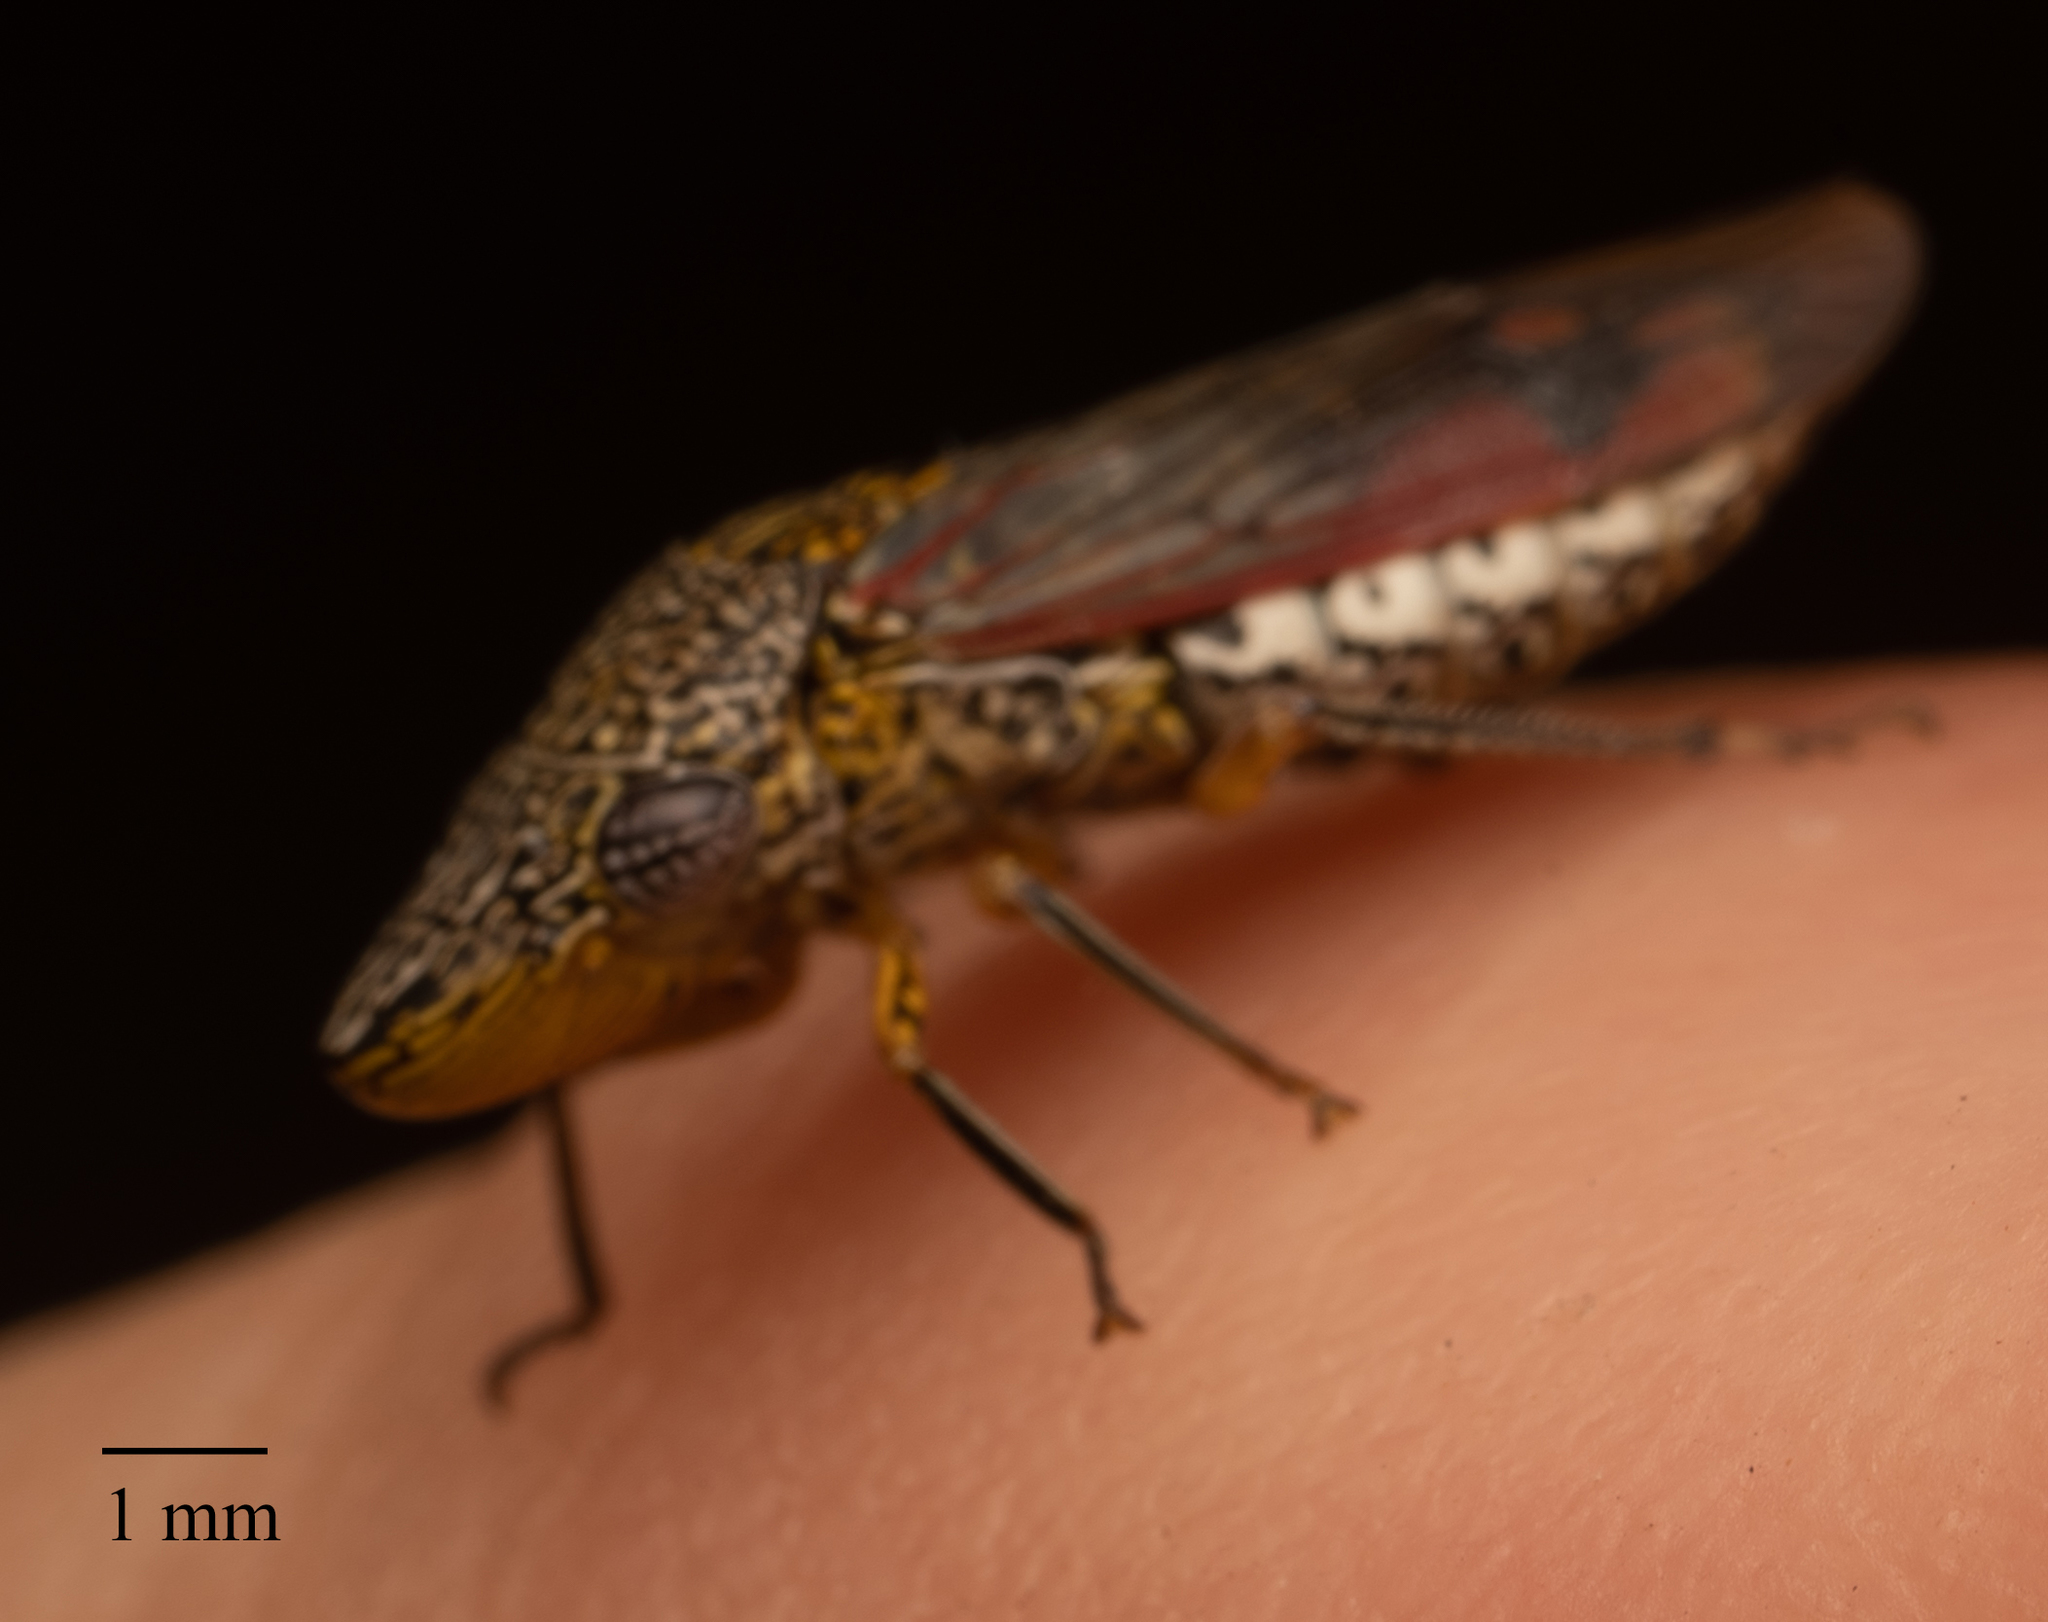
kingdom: Animalia
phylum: Arthropoda
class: Insecta
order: Hemiptera
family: Cicadellidae
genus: Homalodisca
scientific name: Homalodisca liturata
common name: Lacertate sharpshooter
